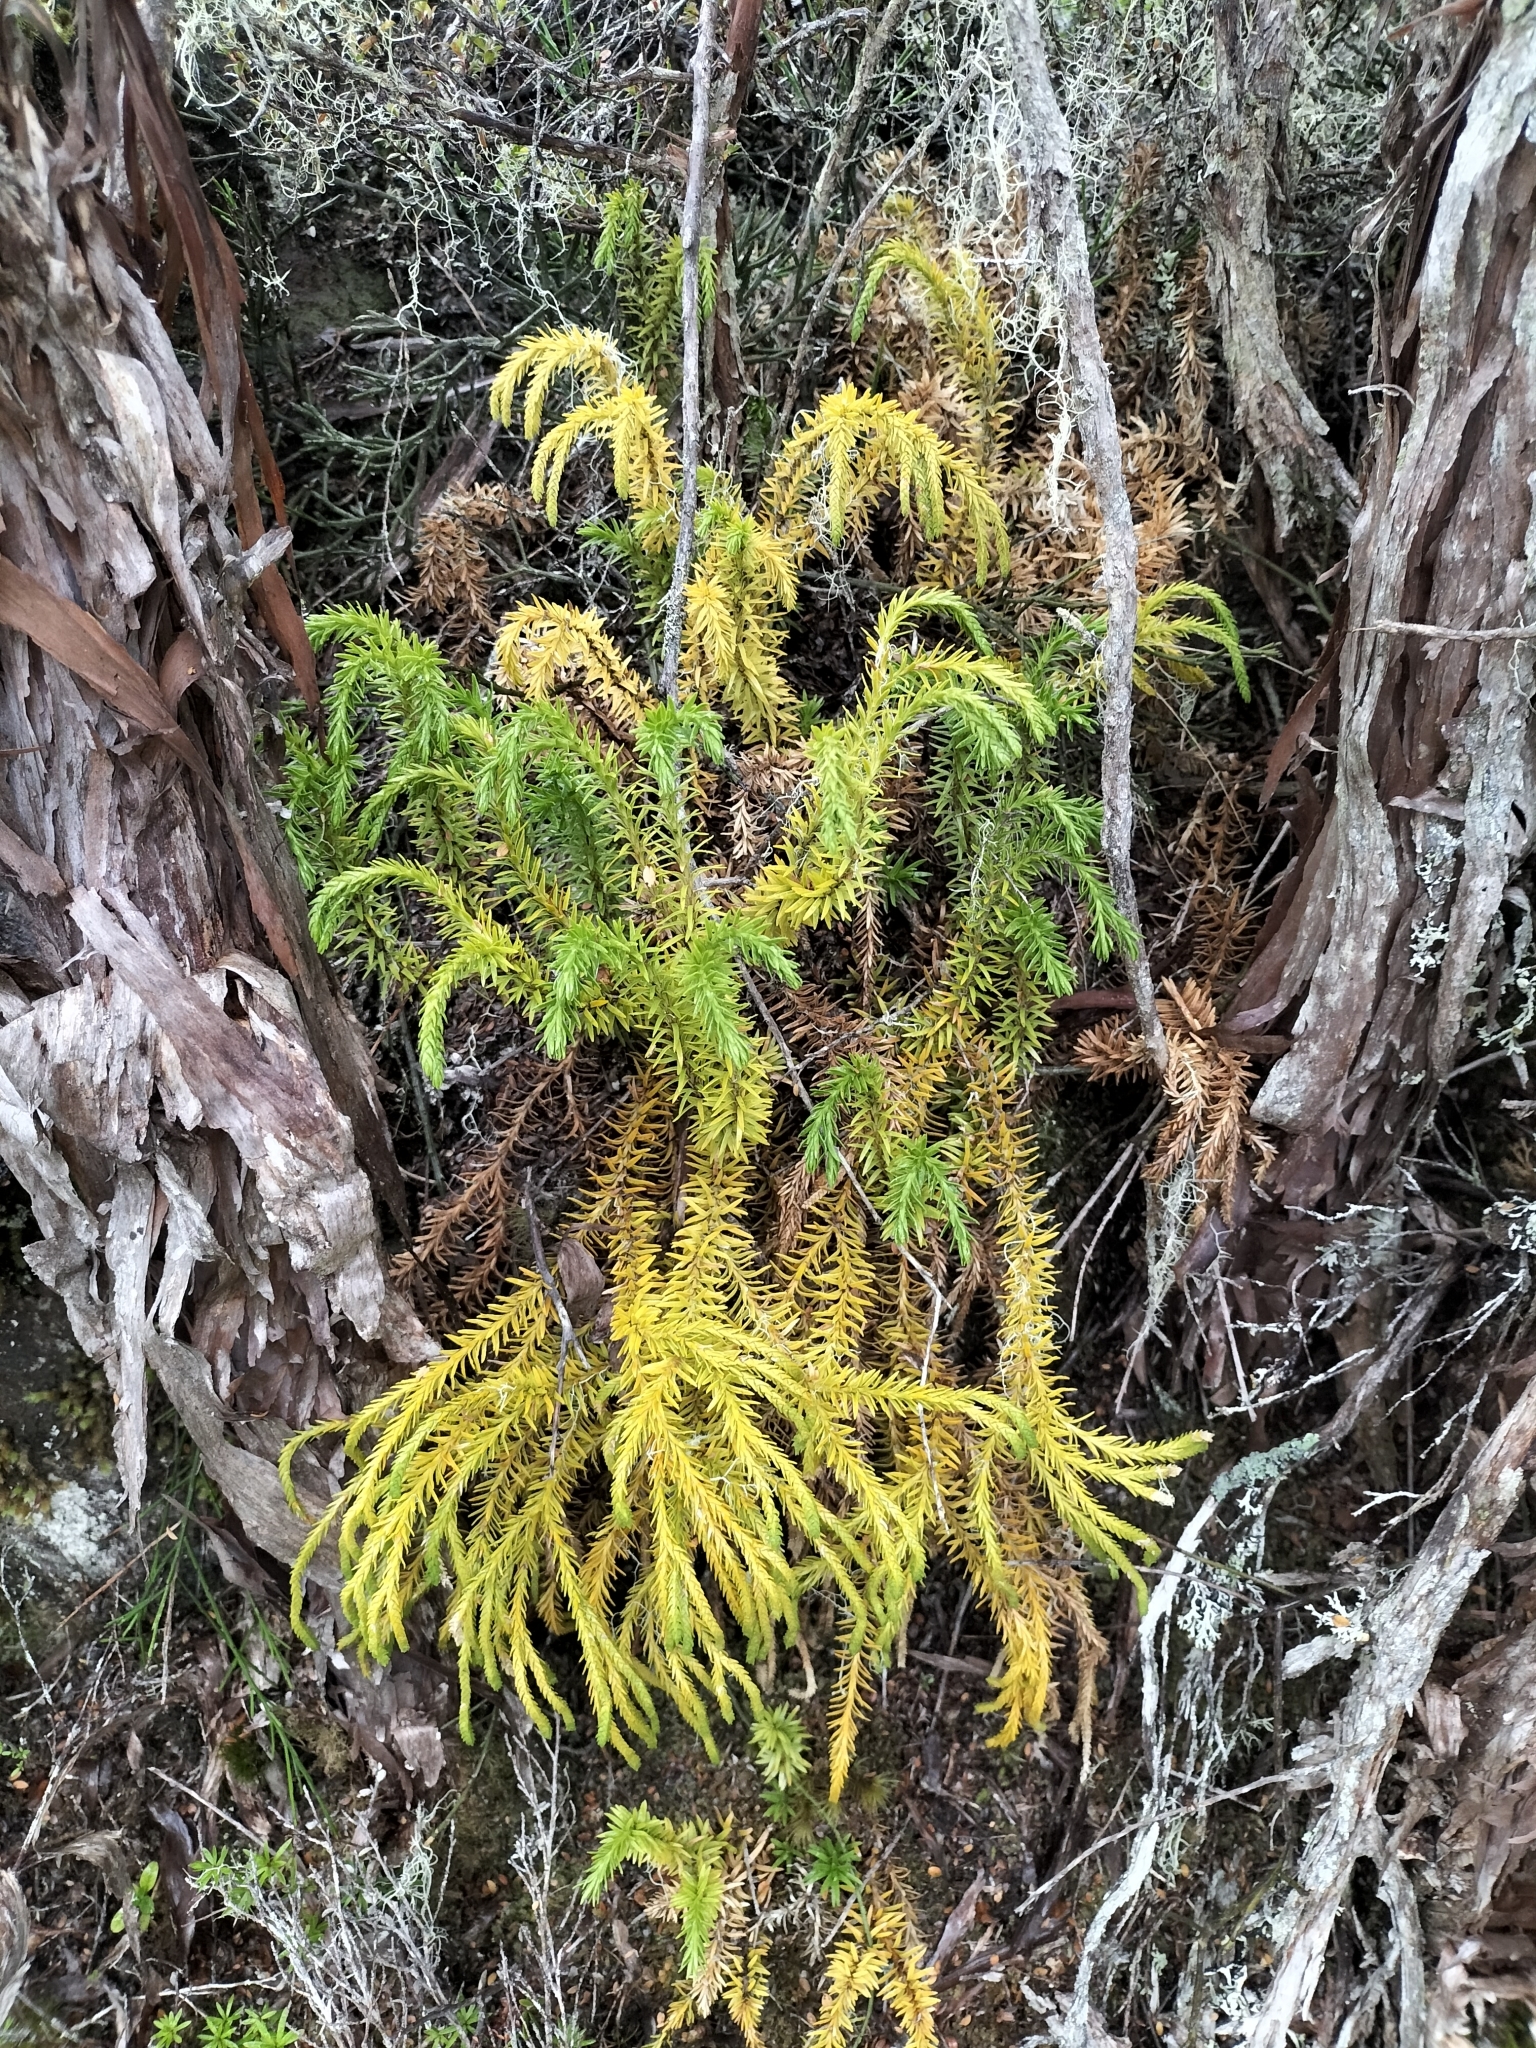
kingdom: Plantae
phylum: Tracheophyta
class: Lycopodiopsida
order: Lycopodiales
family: Lycopodiaceae
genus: Phlegmariurus
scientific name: Phlegmariurus varius
